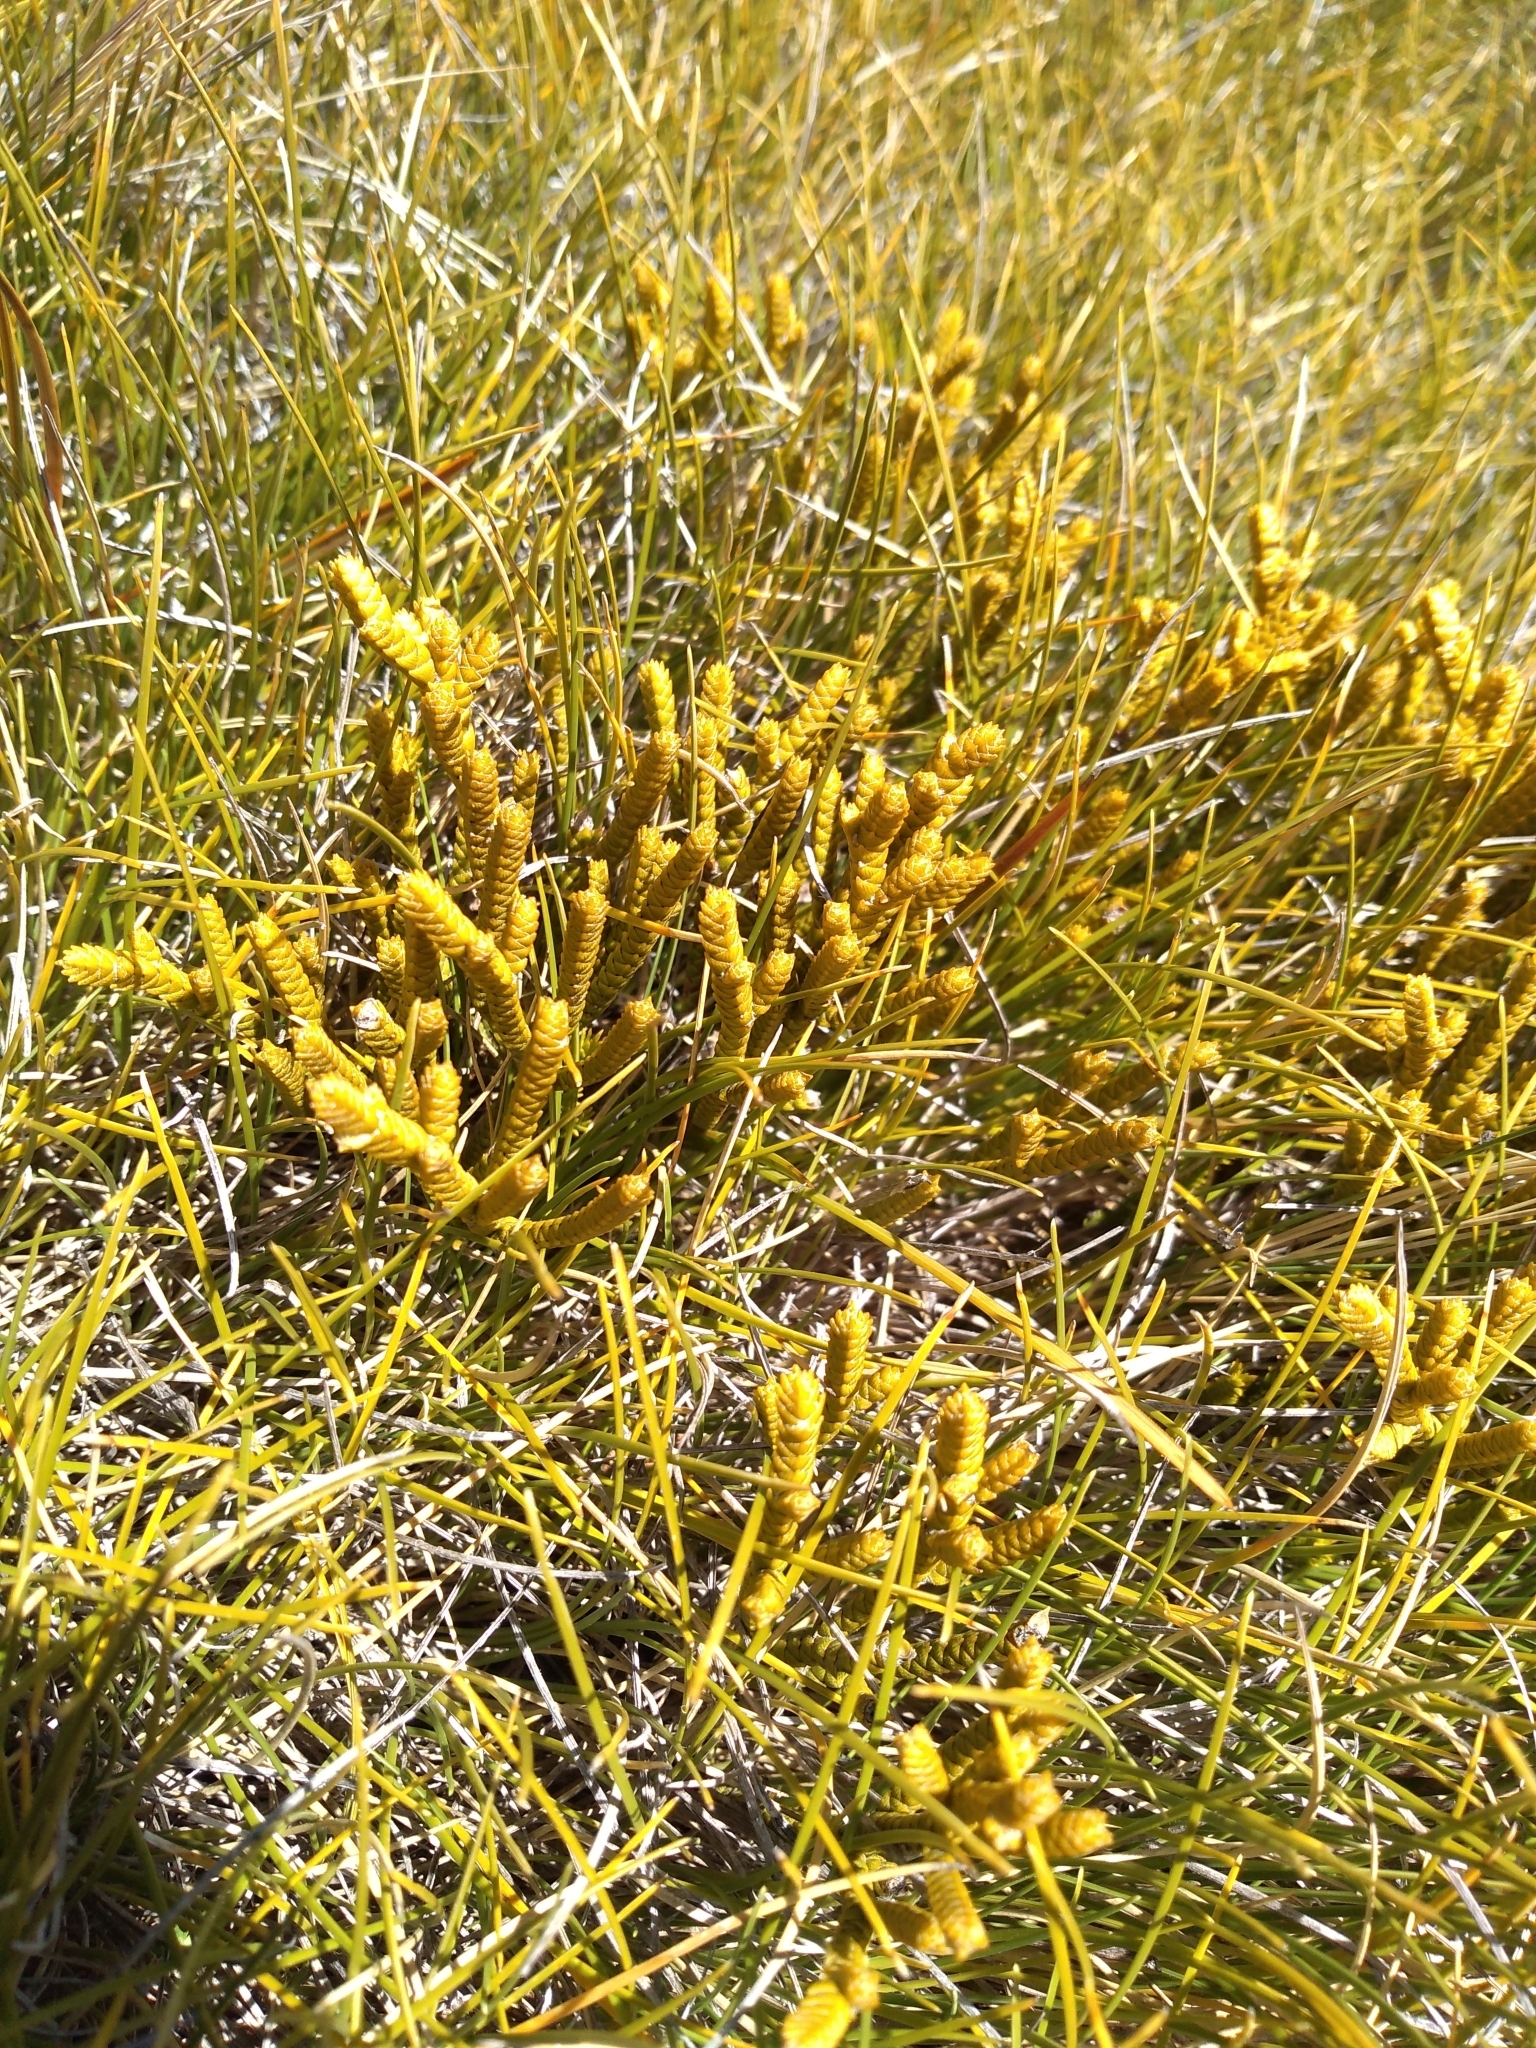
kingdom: Plantae
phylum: Tracheophyta
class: Magnoliopsida
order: Lamiales
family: Plantaginaceae
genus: Veronica
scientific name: Veronica lycopodioides
